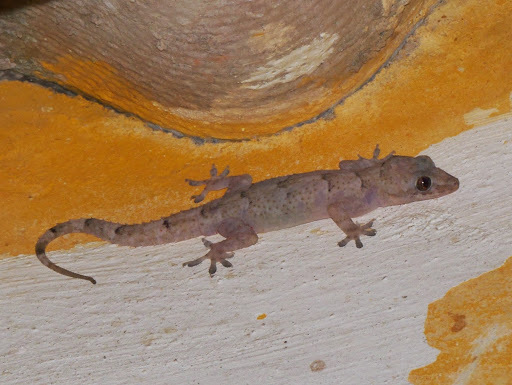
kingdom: Animalia
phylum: Chordata
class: Squamata
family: Gekkonidae
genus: Hemidactylus
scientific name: Hemidactylus mabouia
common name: House gecko
